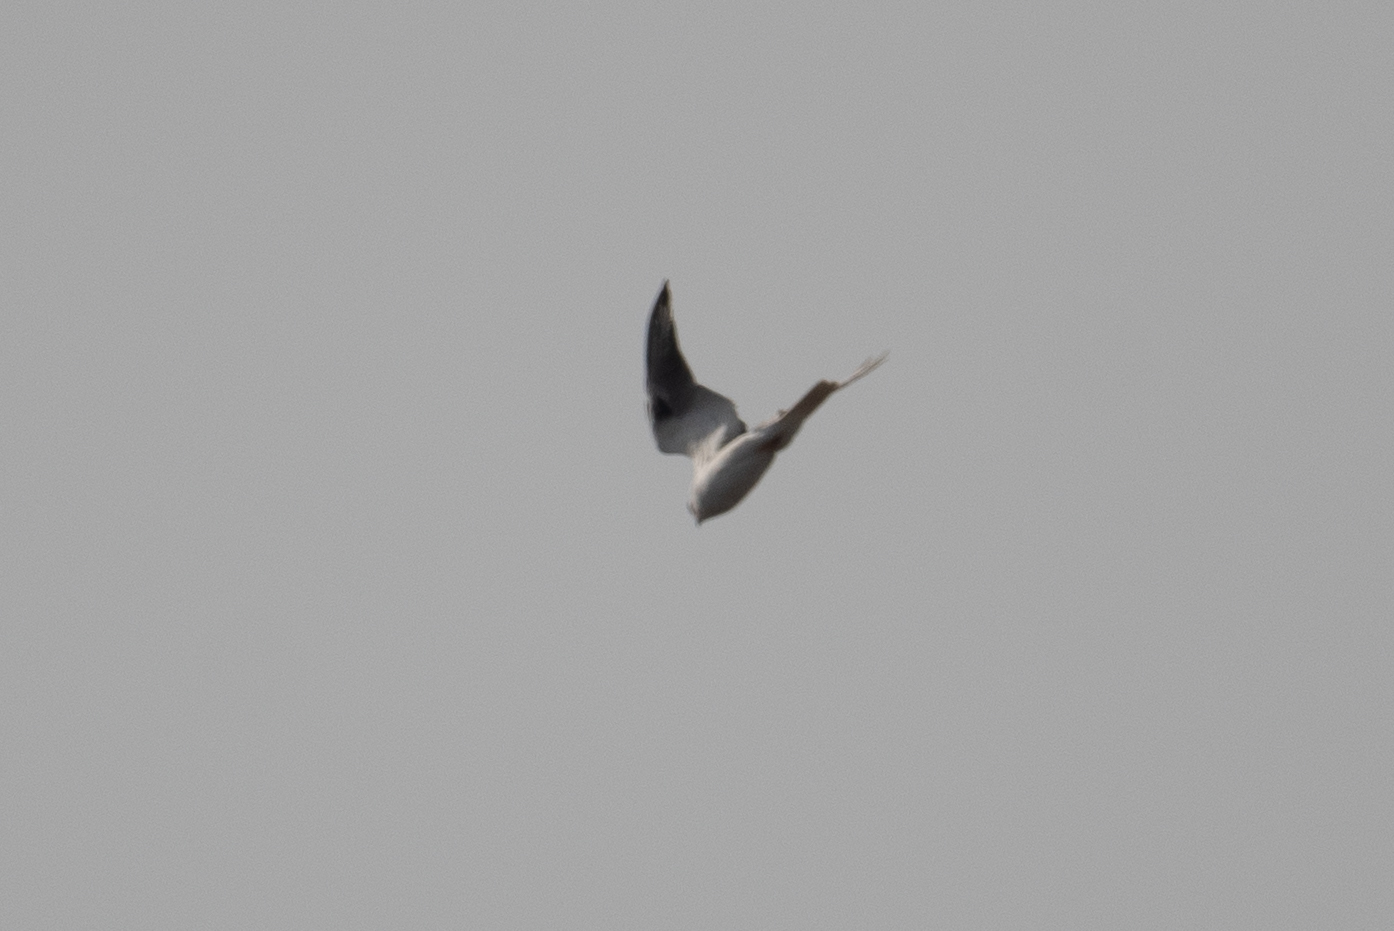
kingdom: Animalia
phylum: Chordata
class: Aves
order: Accipitriformes
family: Accipitridae
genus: Elanus
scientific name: Elanus leucurus
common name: White-tailed kite
